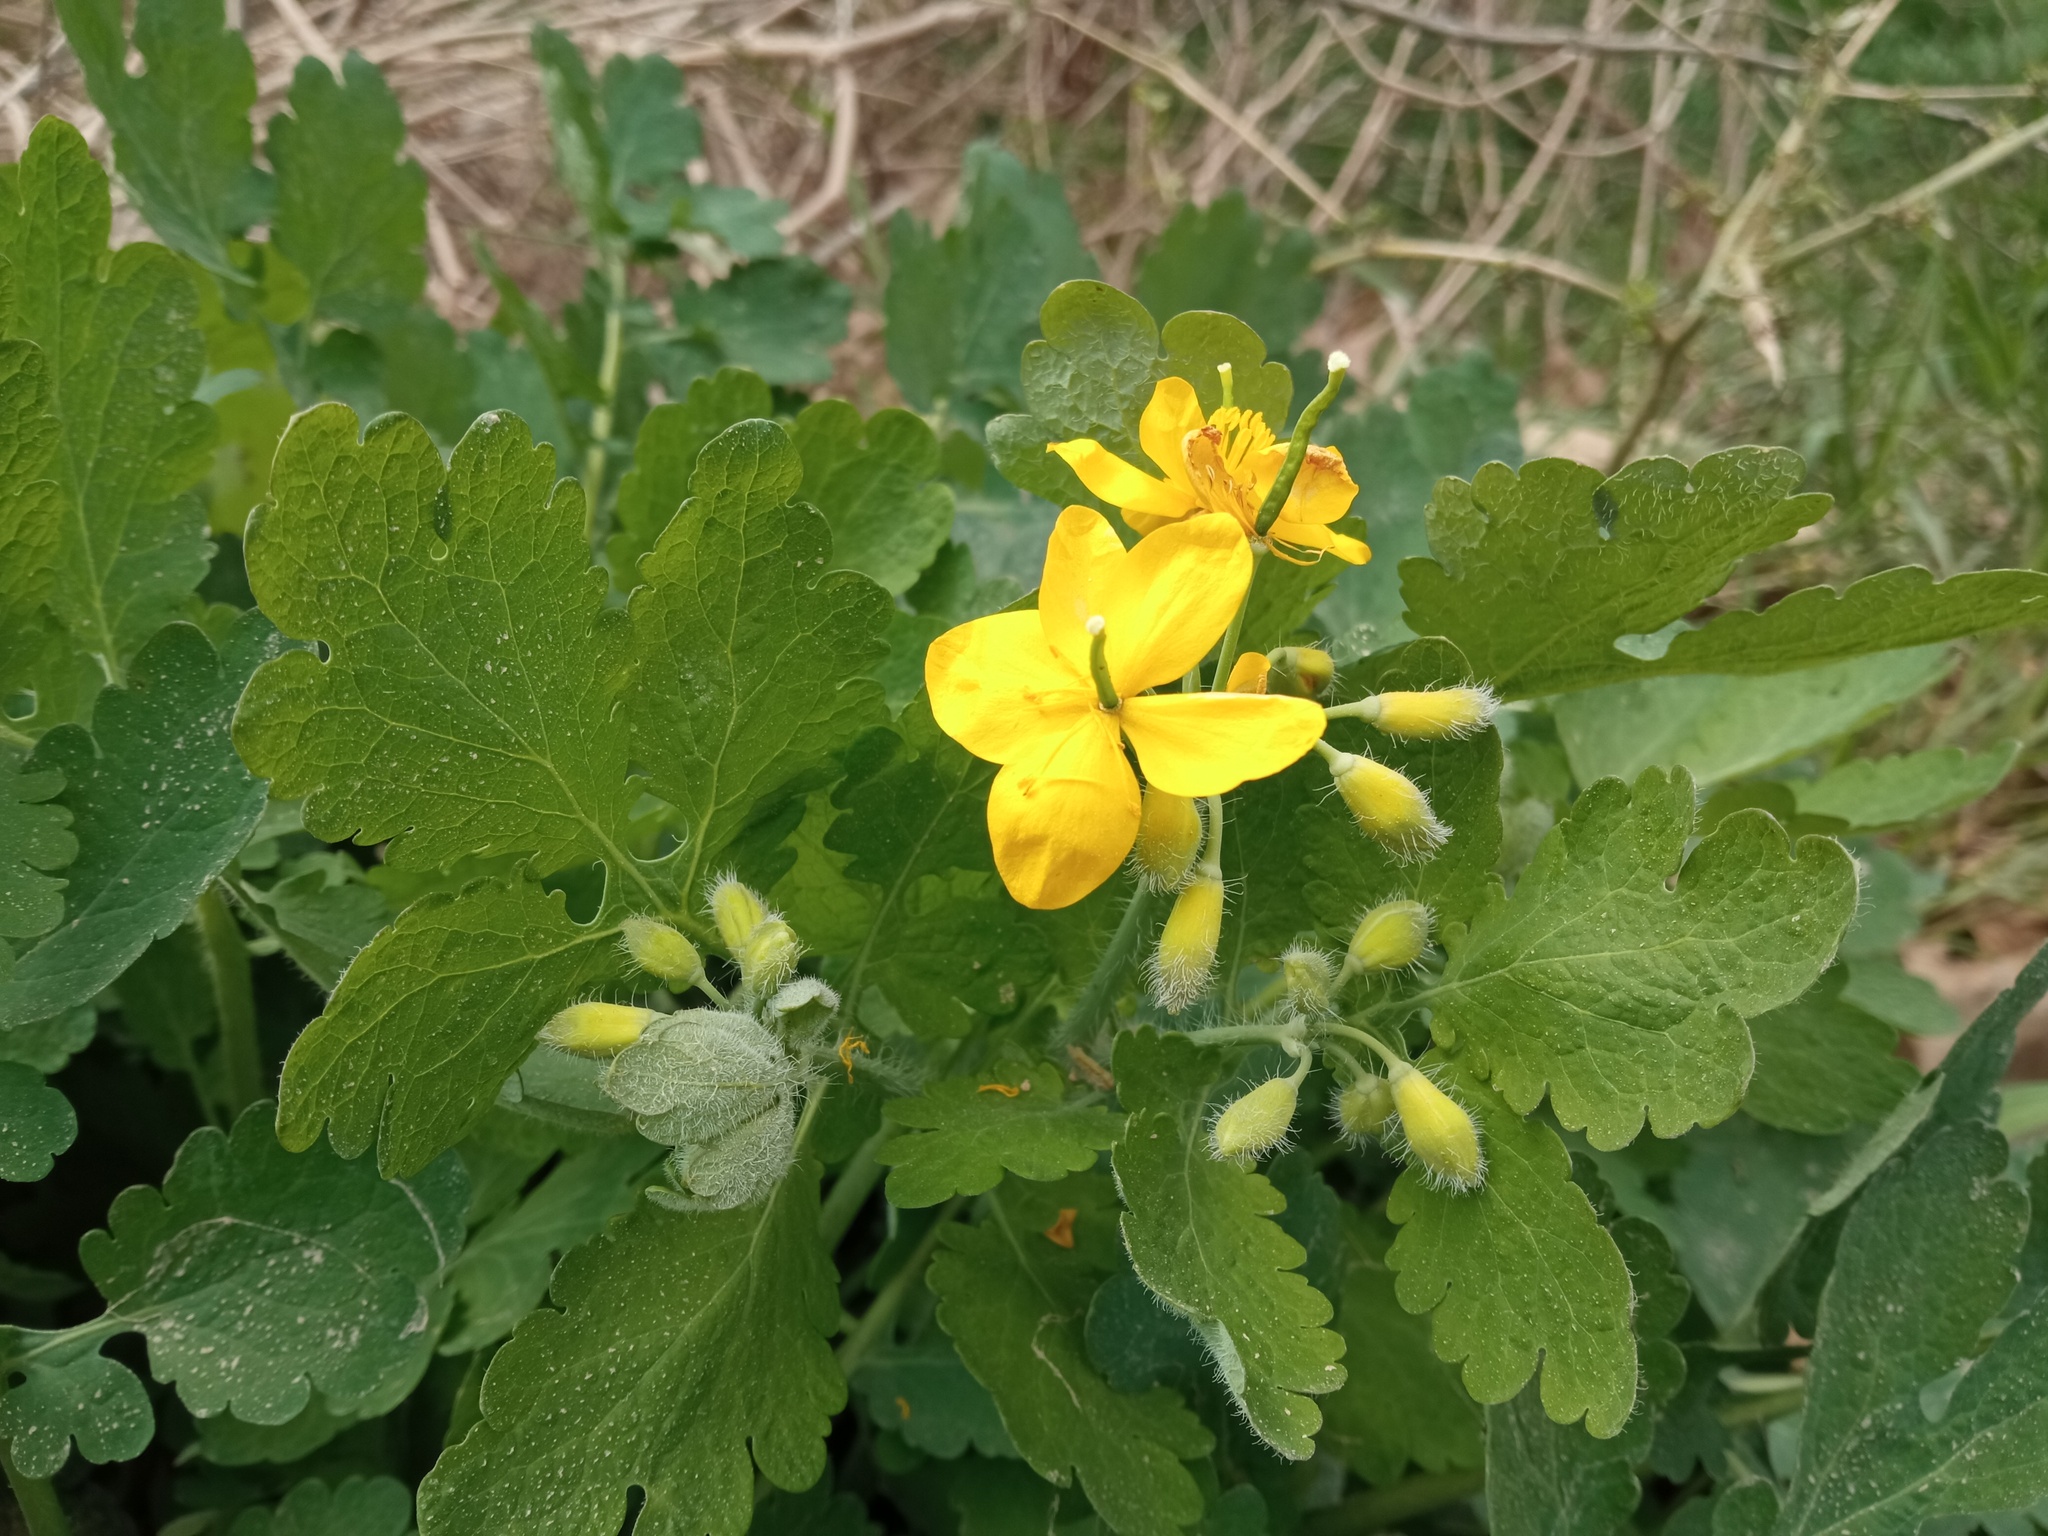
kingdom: Plantae
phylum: Tracheophyta
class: Magnoliopsida
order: Ranunculales
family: Papaveraceae
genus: Chelidonium
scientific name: Chelidonium majus
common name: Greater celandine
